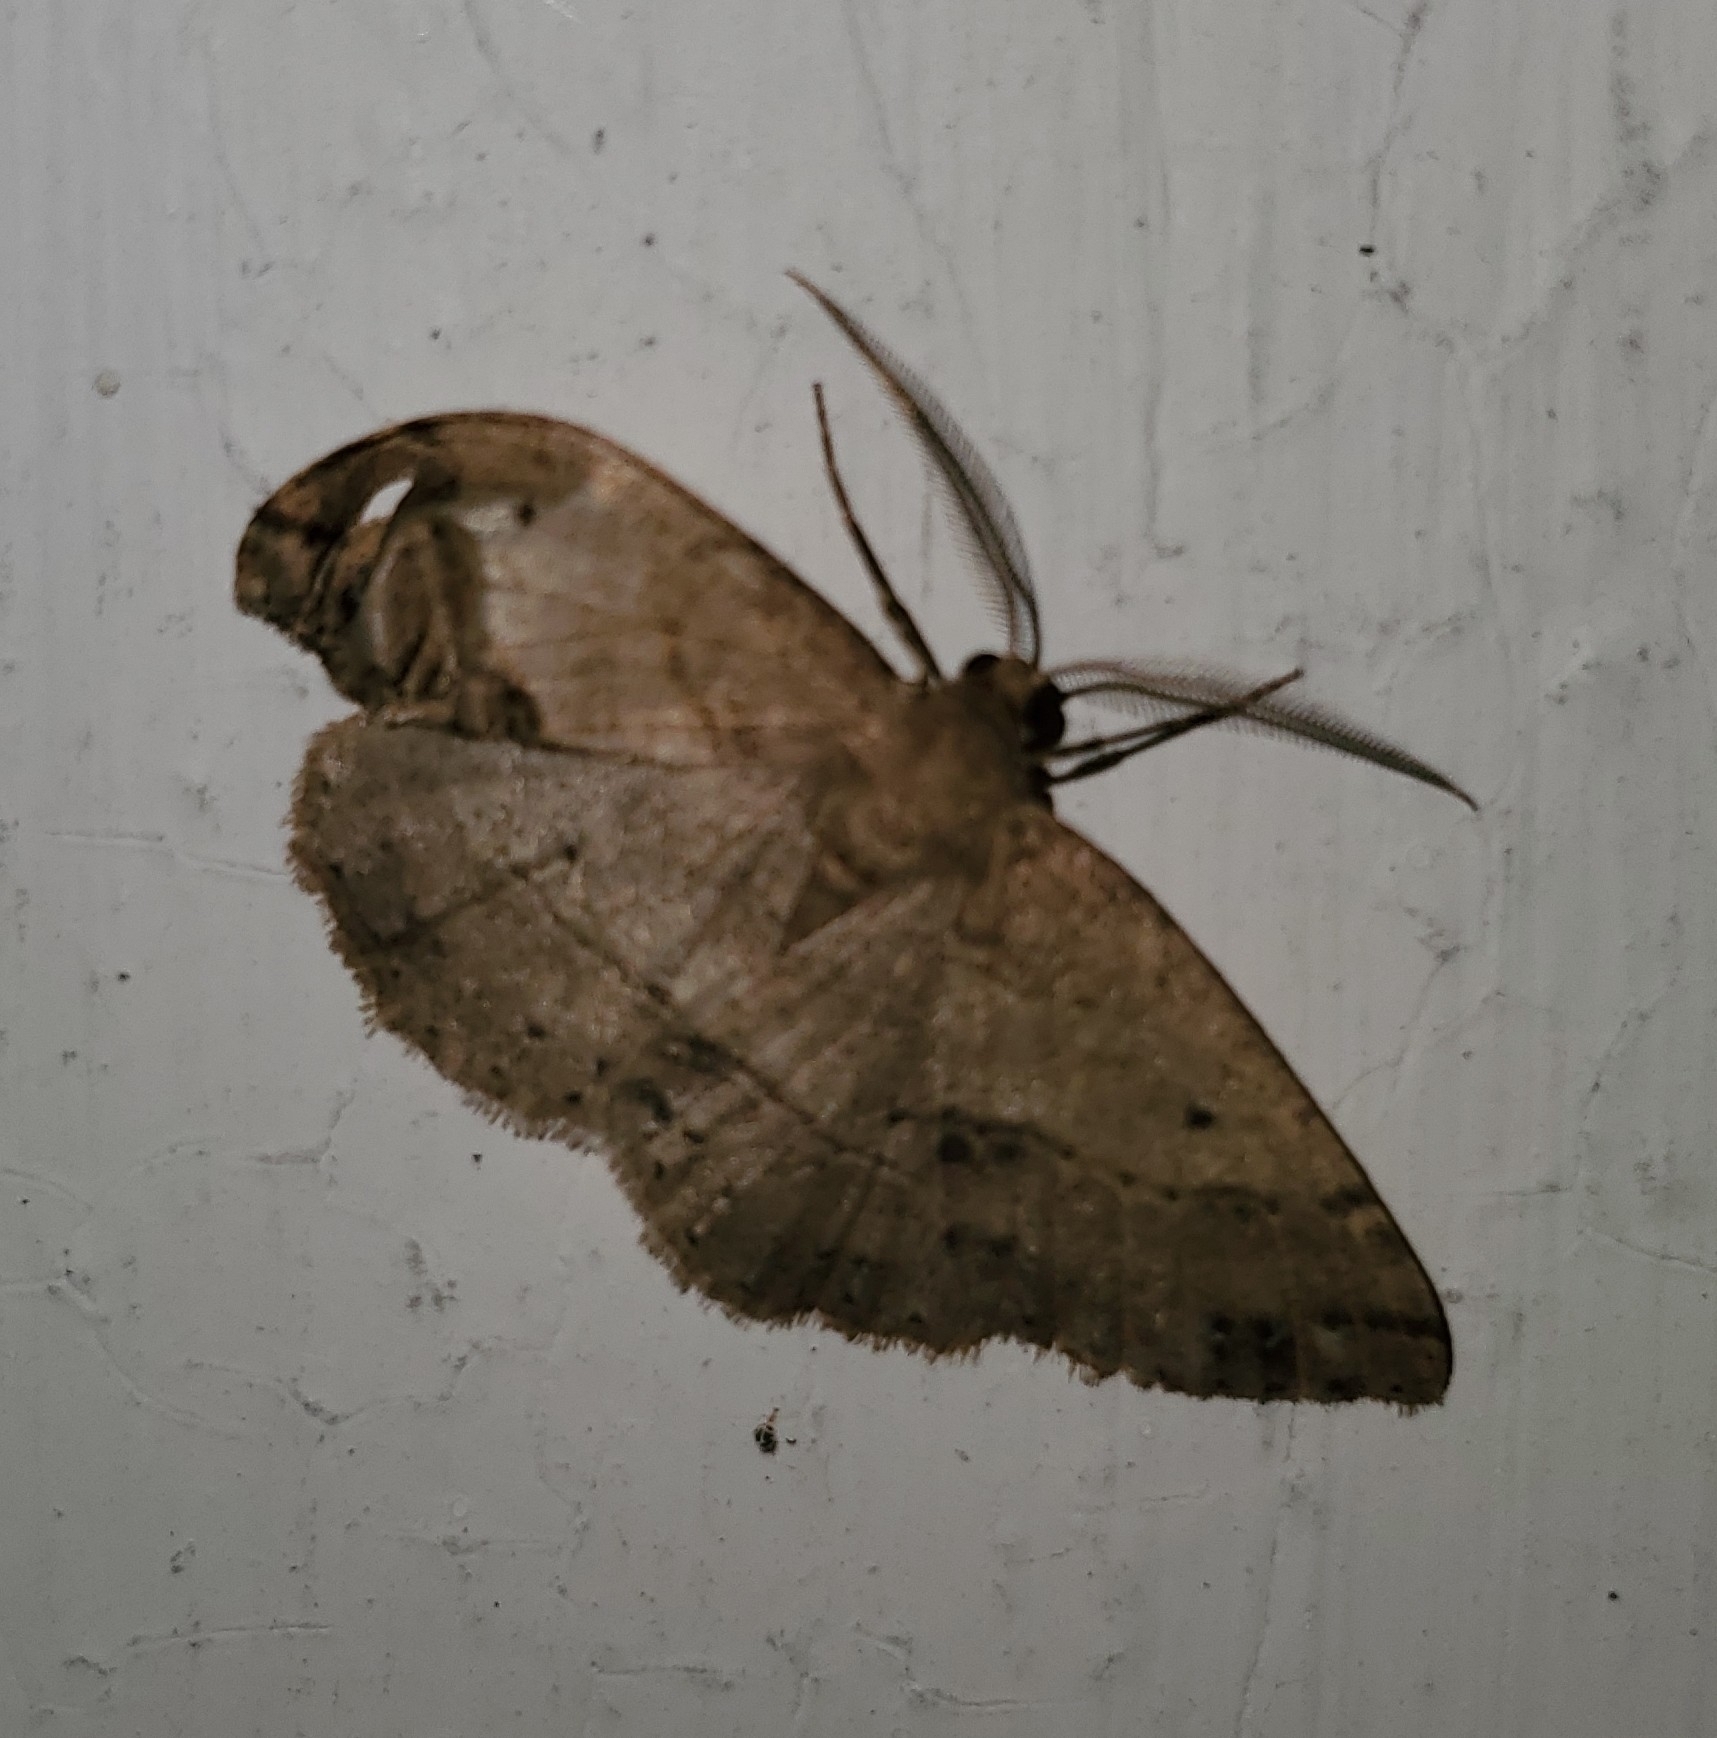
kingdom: Animalia
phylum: Arthropoda
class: Insecta
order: Lepidoptera
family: Geometridae
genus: Melanolophia
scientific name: Melanolophia signataria
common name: Signate melanolophia
